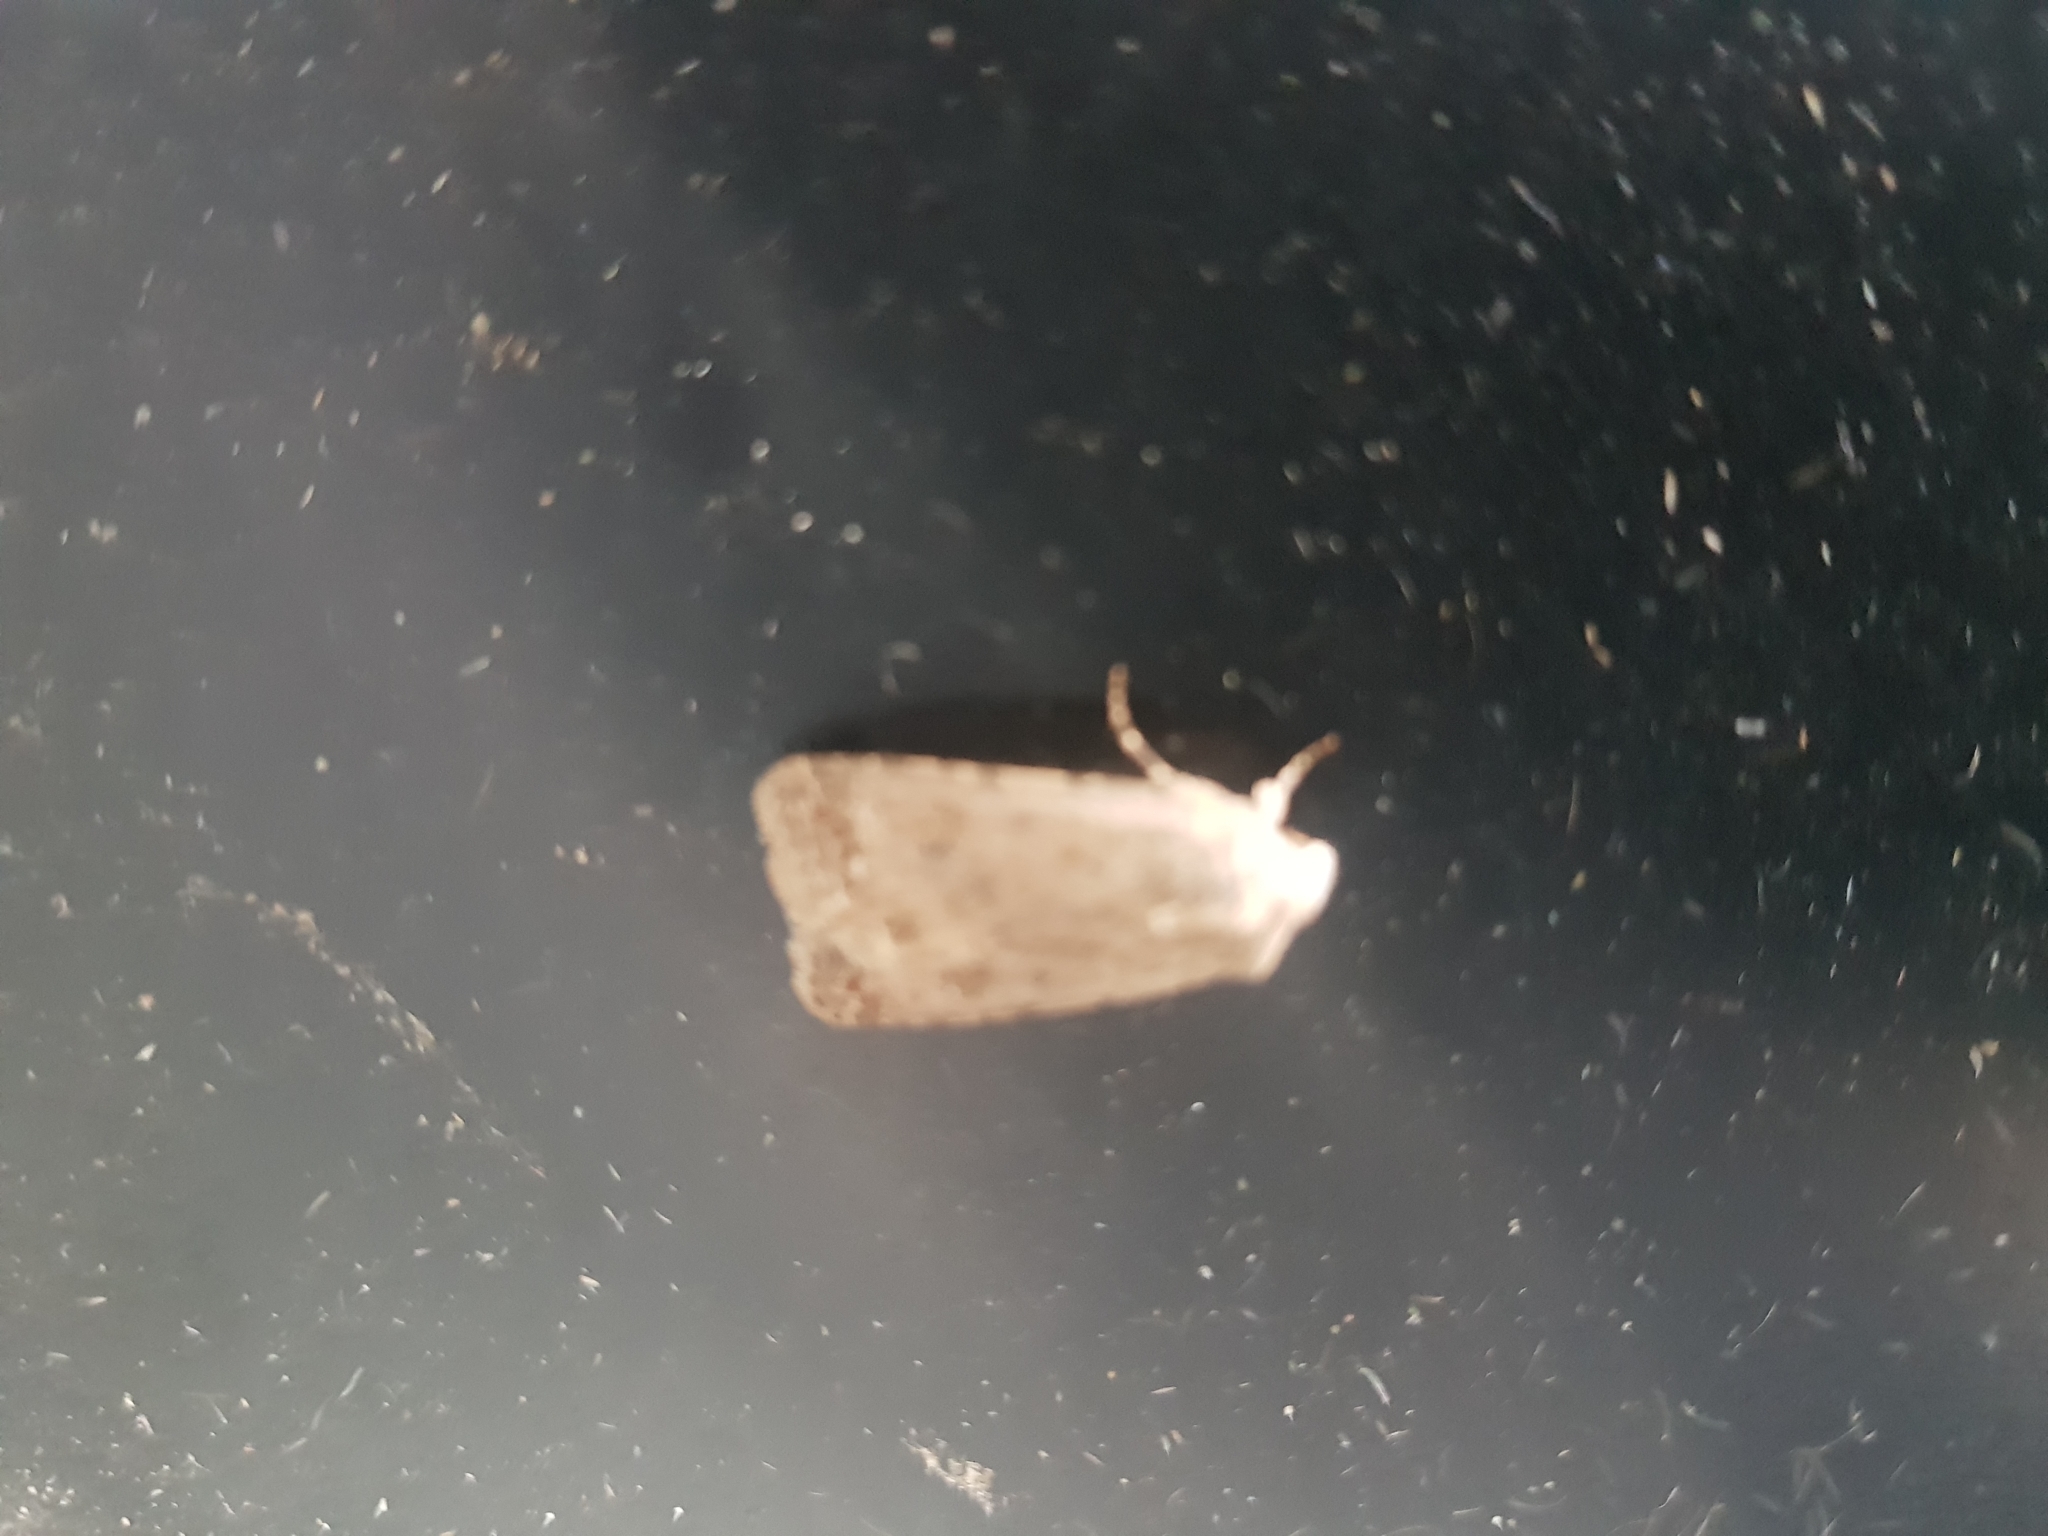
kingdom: Animalia
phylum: Arthropoda
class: Insecta
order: Lepidoptera
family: Noctuidae
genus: Caradrina
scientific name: Caradrina clavipalpis
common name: Pale mottled willow
